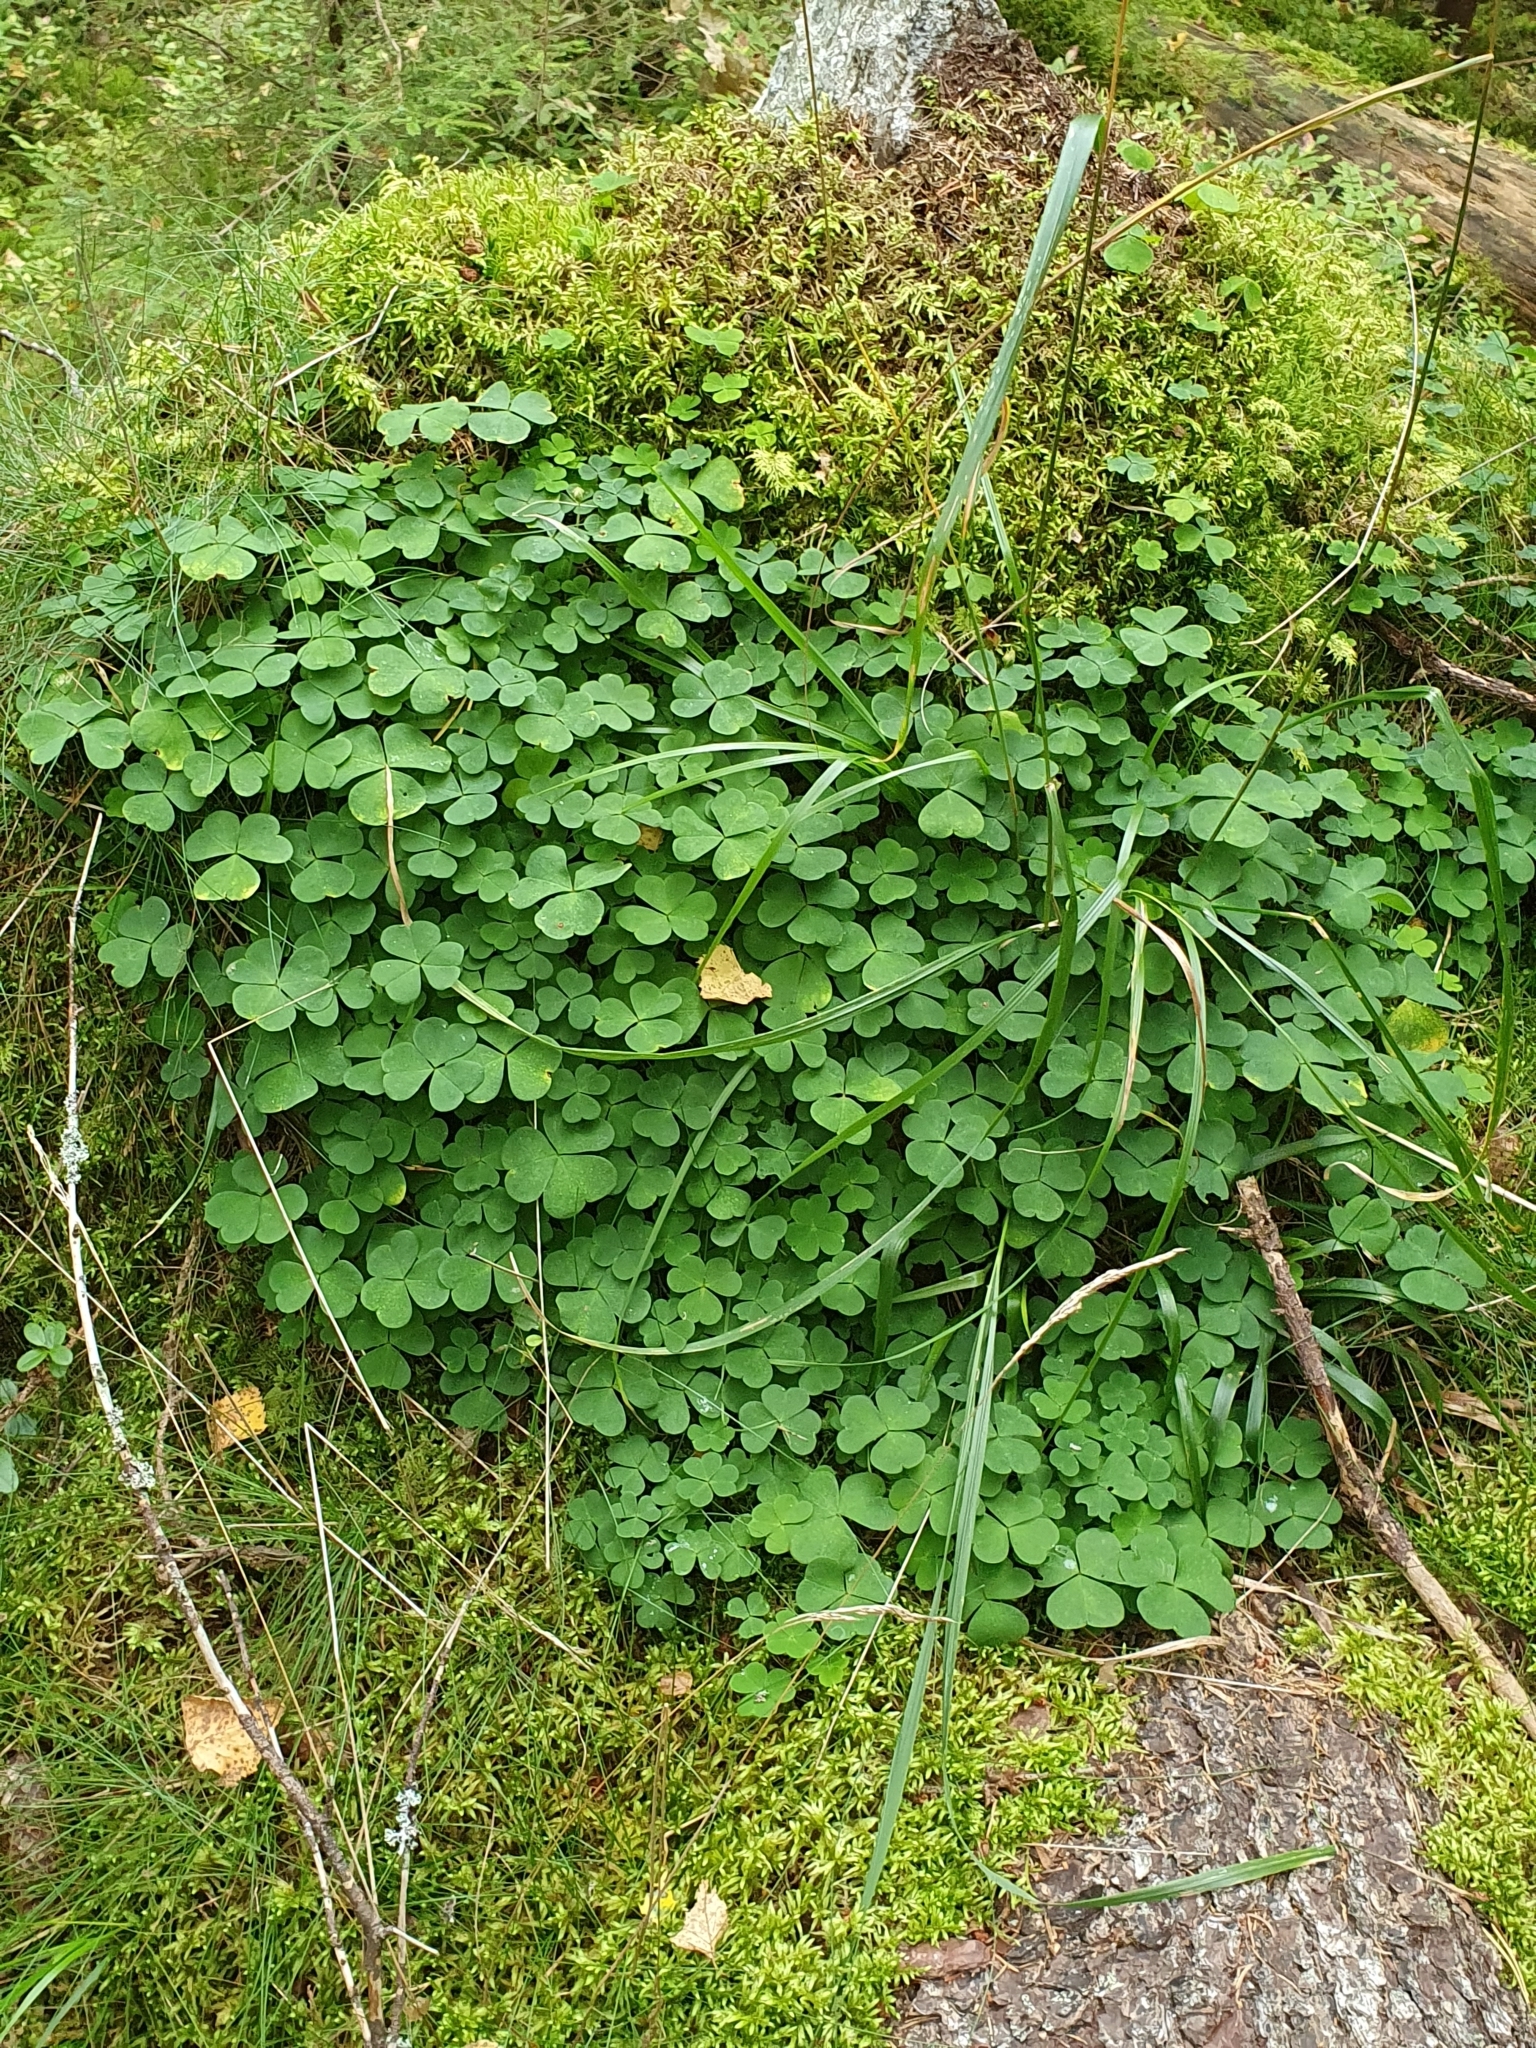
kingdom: Plantae
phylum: Tracheophyta
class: Magnoliopsida
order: Oxalidales
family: Oxalidaceae
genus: Oxalis
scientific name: Oxalis acetosella
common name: Wood-sorrel
